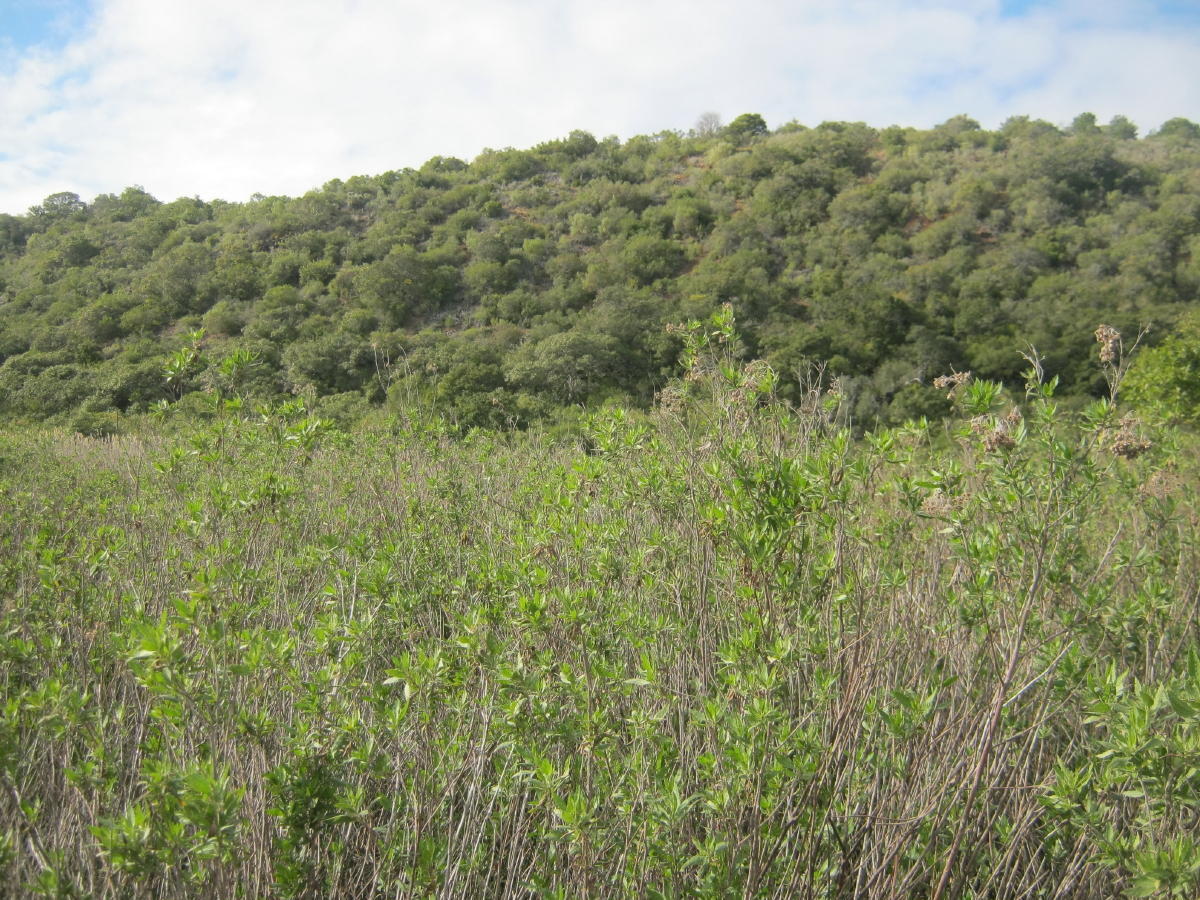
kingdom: Plantae
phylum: Tracheophyta
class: Magnoliopsida
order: Asterales
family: Asteraceae
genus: Nidorella
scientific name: Nidorella ivifolia
